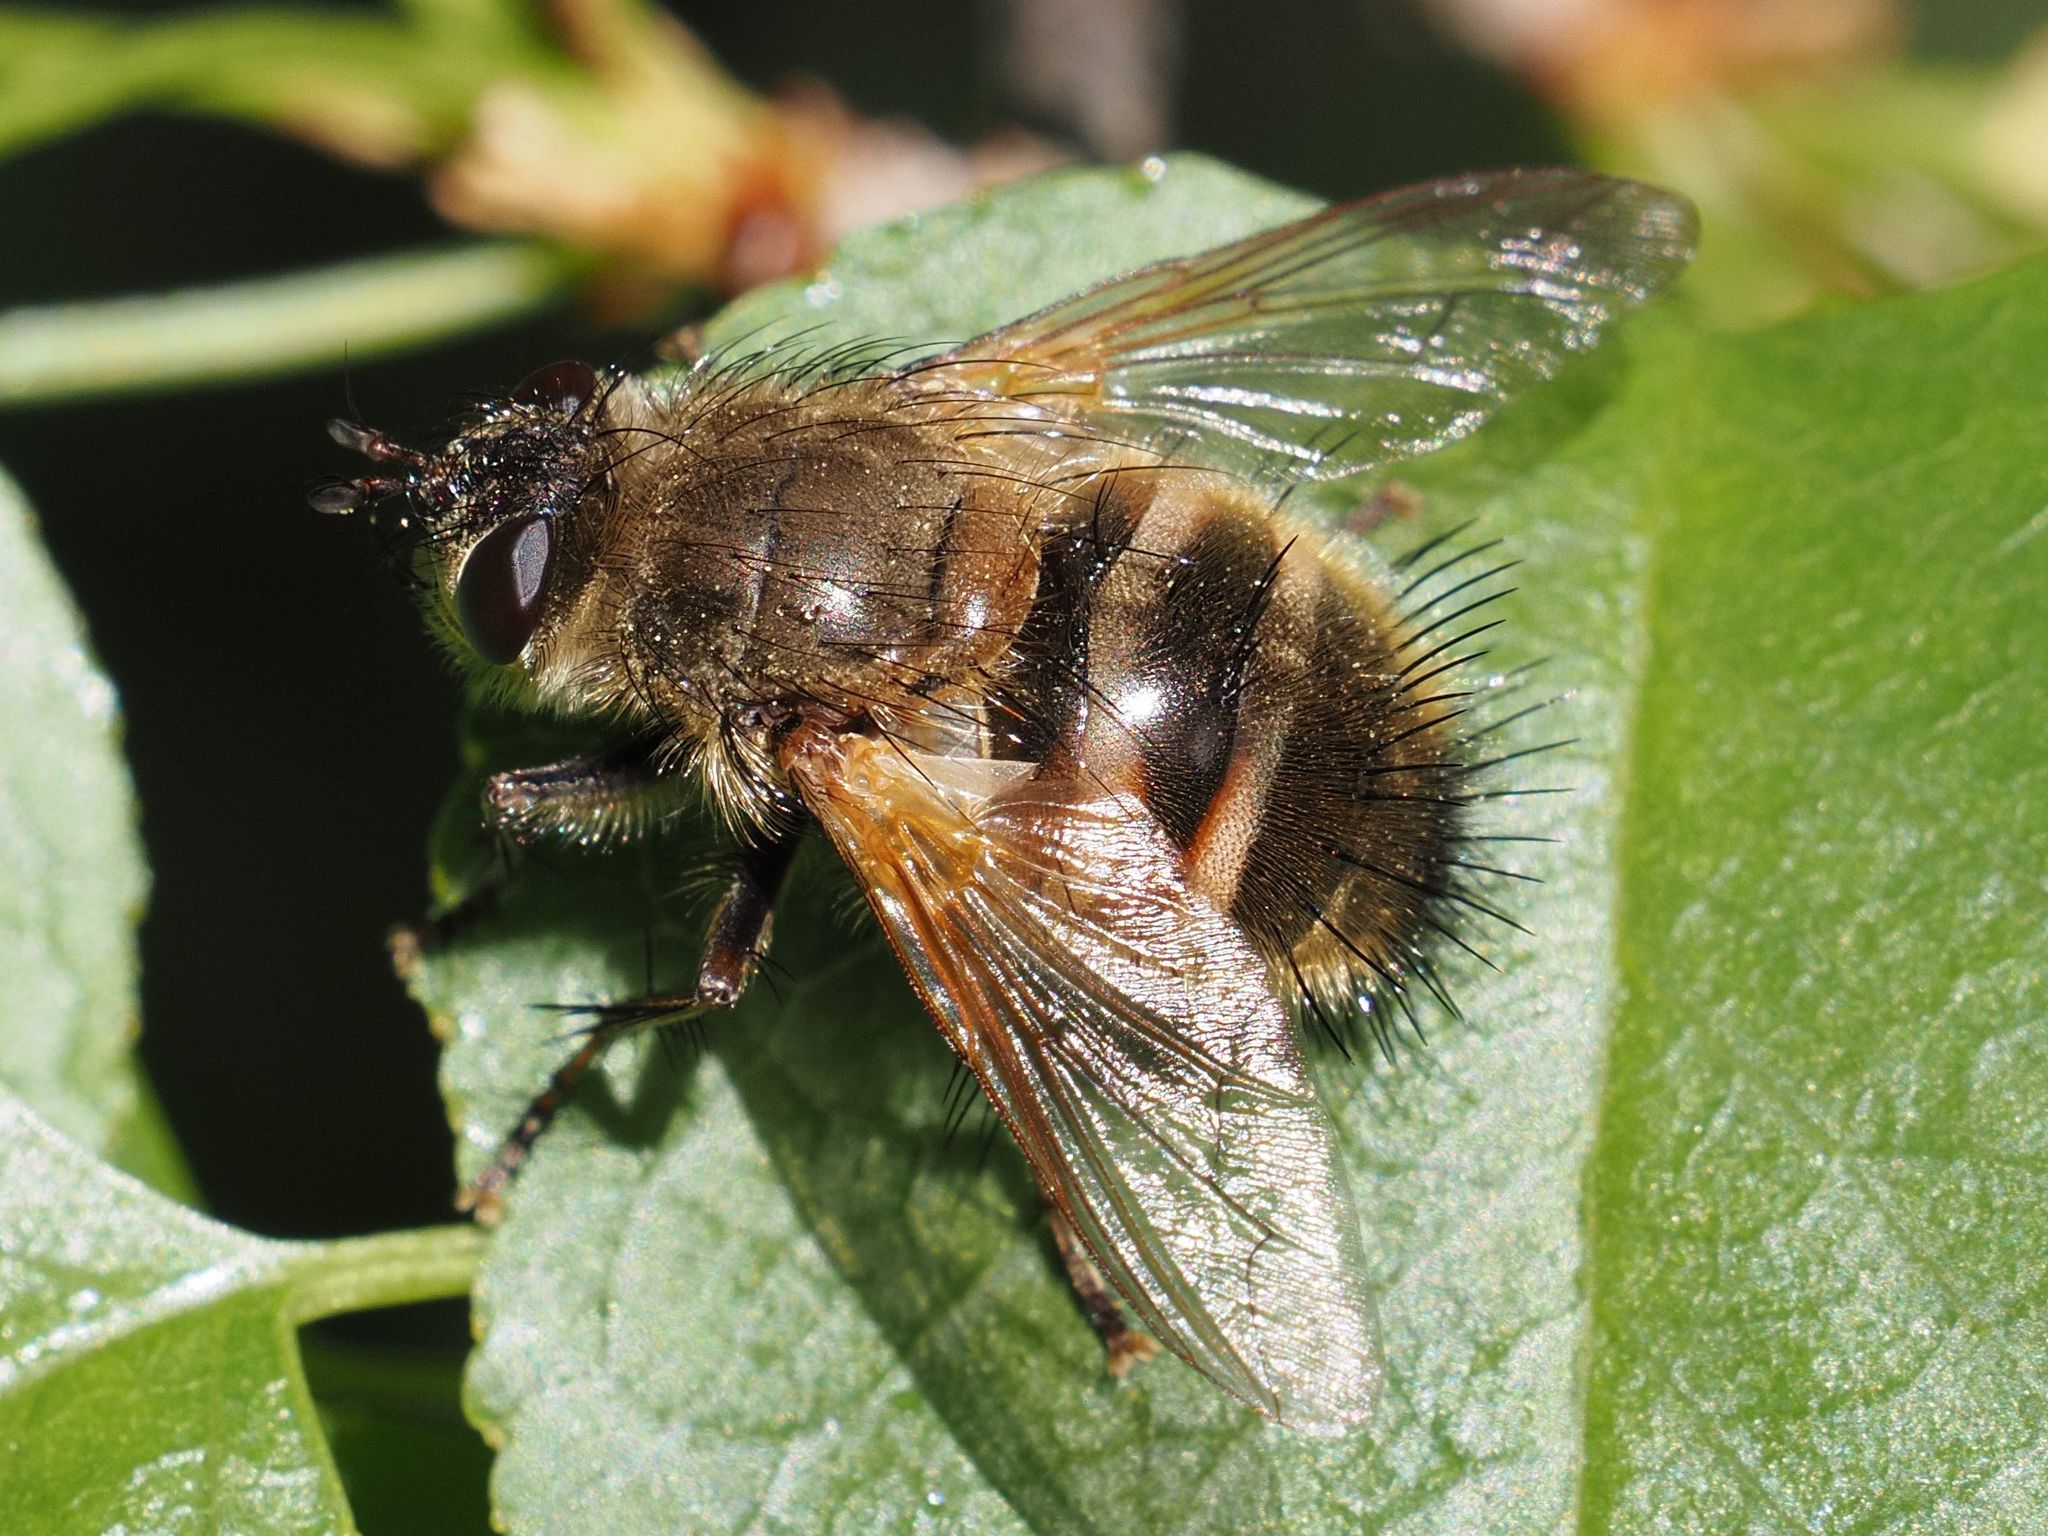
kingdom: Animalia
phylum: Arthropoda
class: Insecta
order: Diptera
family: Tachinidae
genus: Tachina
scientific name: Tachina lurida
